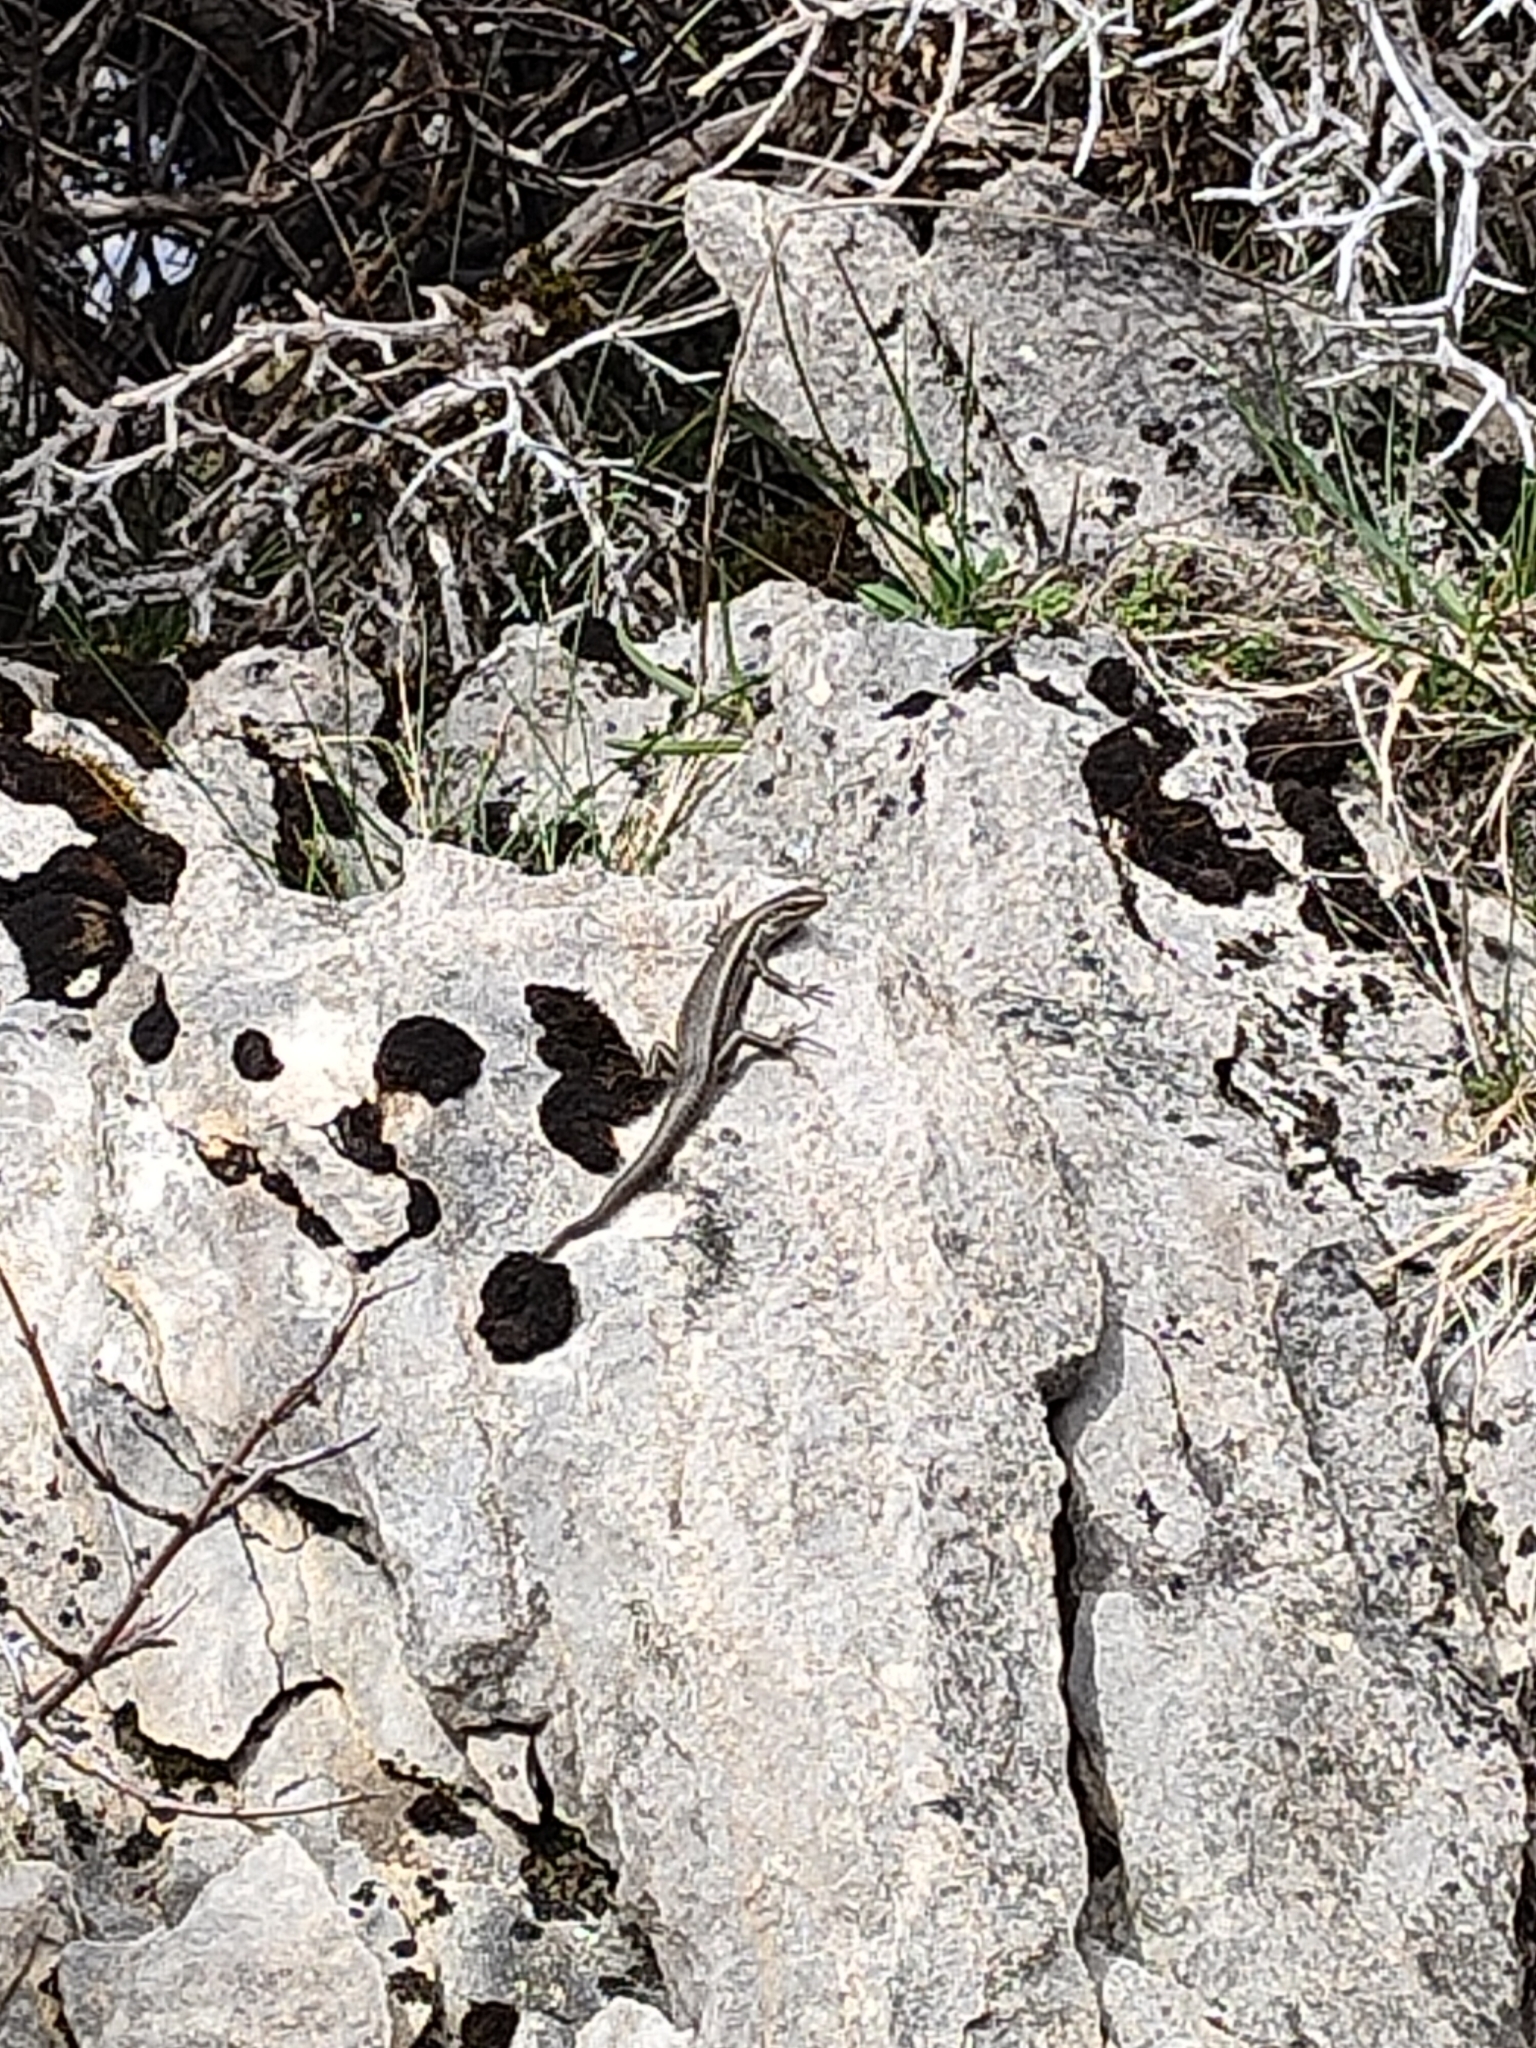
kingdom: Animalia
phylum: Chordata
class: Squamata
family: Scincidae
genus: Oligosoma
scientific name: Oligosoma longipes
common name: Long-toed skink
